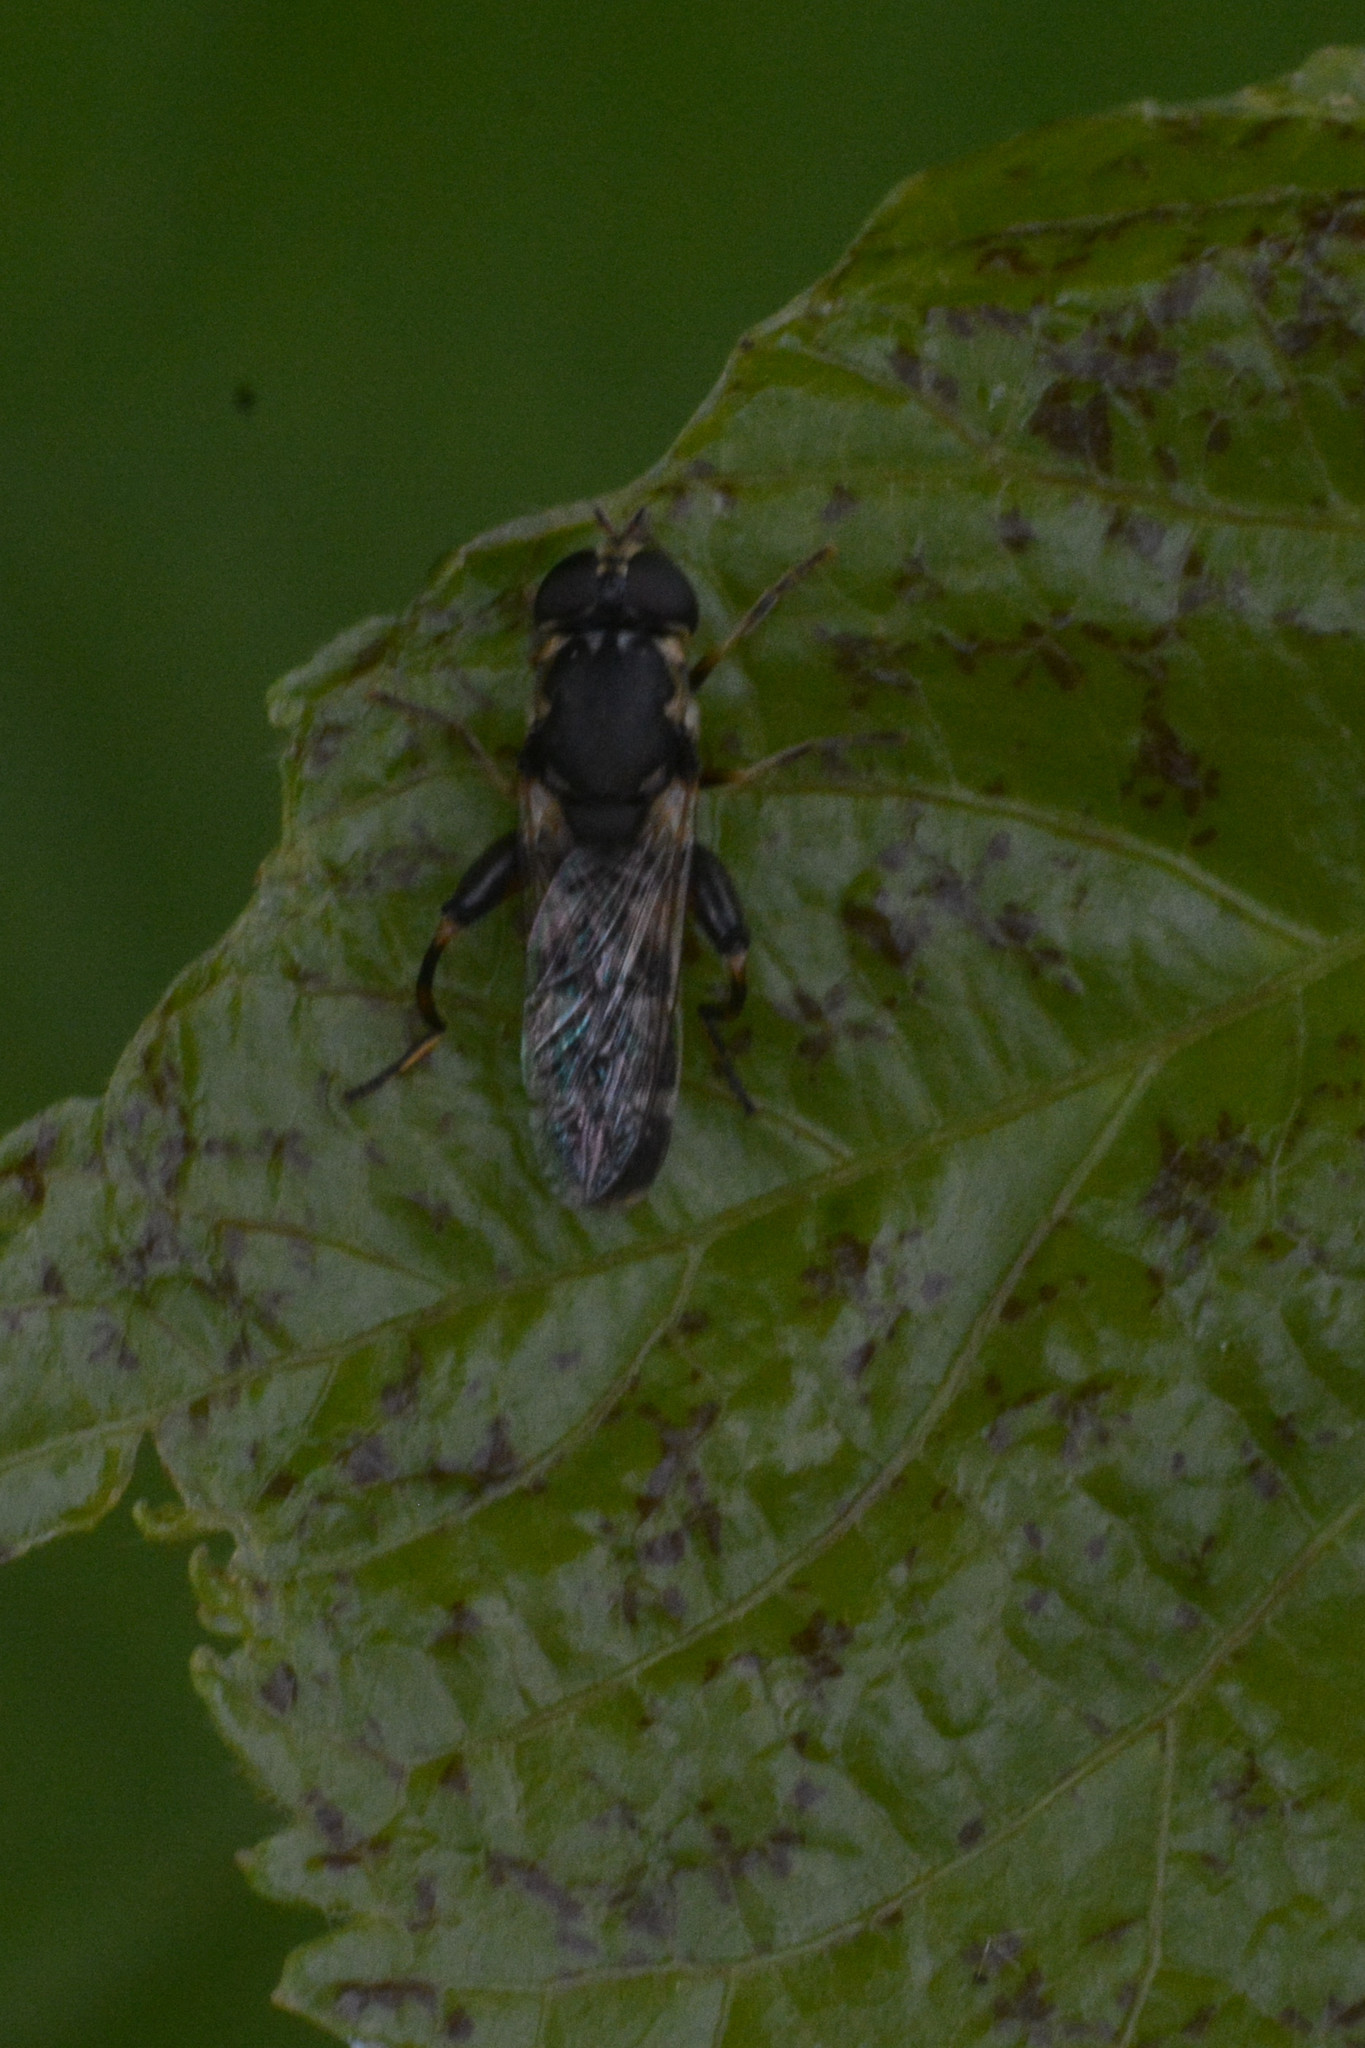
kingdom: Animalia
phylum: Arthropoda
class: Insecta
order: Diptera
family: Syrphidae
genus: Syritta
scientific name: Syritta pipiens
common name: Hover fly
